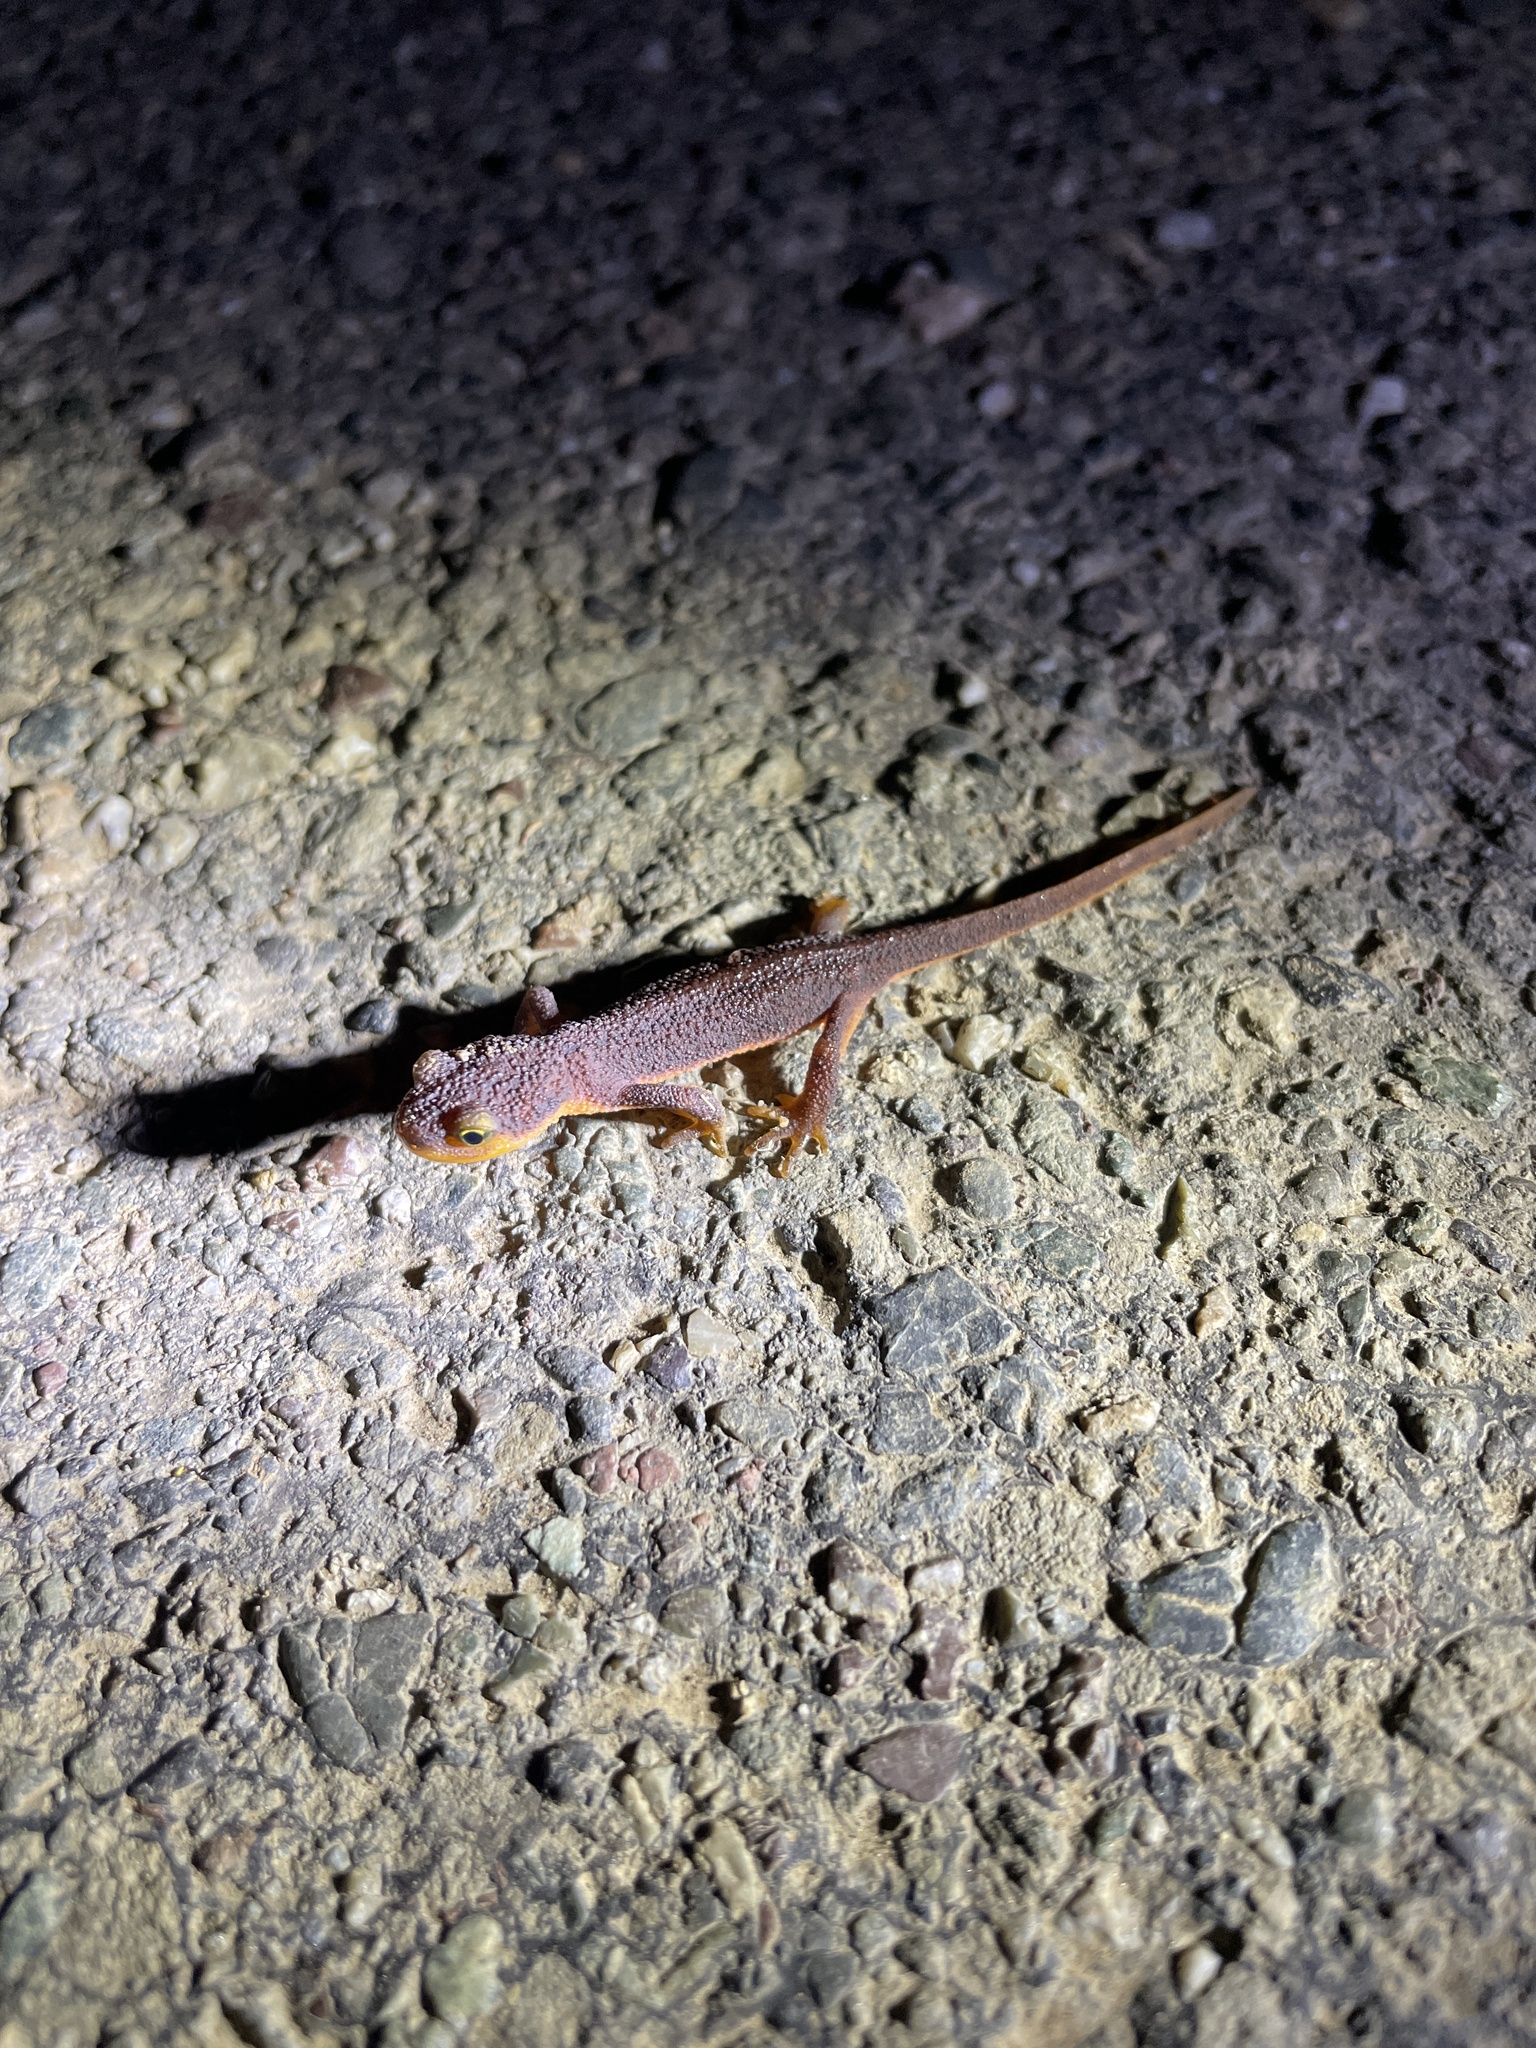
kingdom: Animalia
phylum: Chordata
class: Amphibia
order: Caudata
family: Salamandridae
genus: Taricha
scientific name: Taricha torosa
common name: California newt
